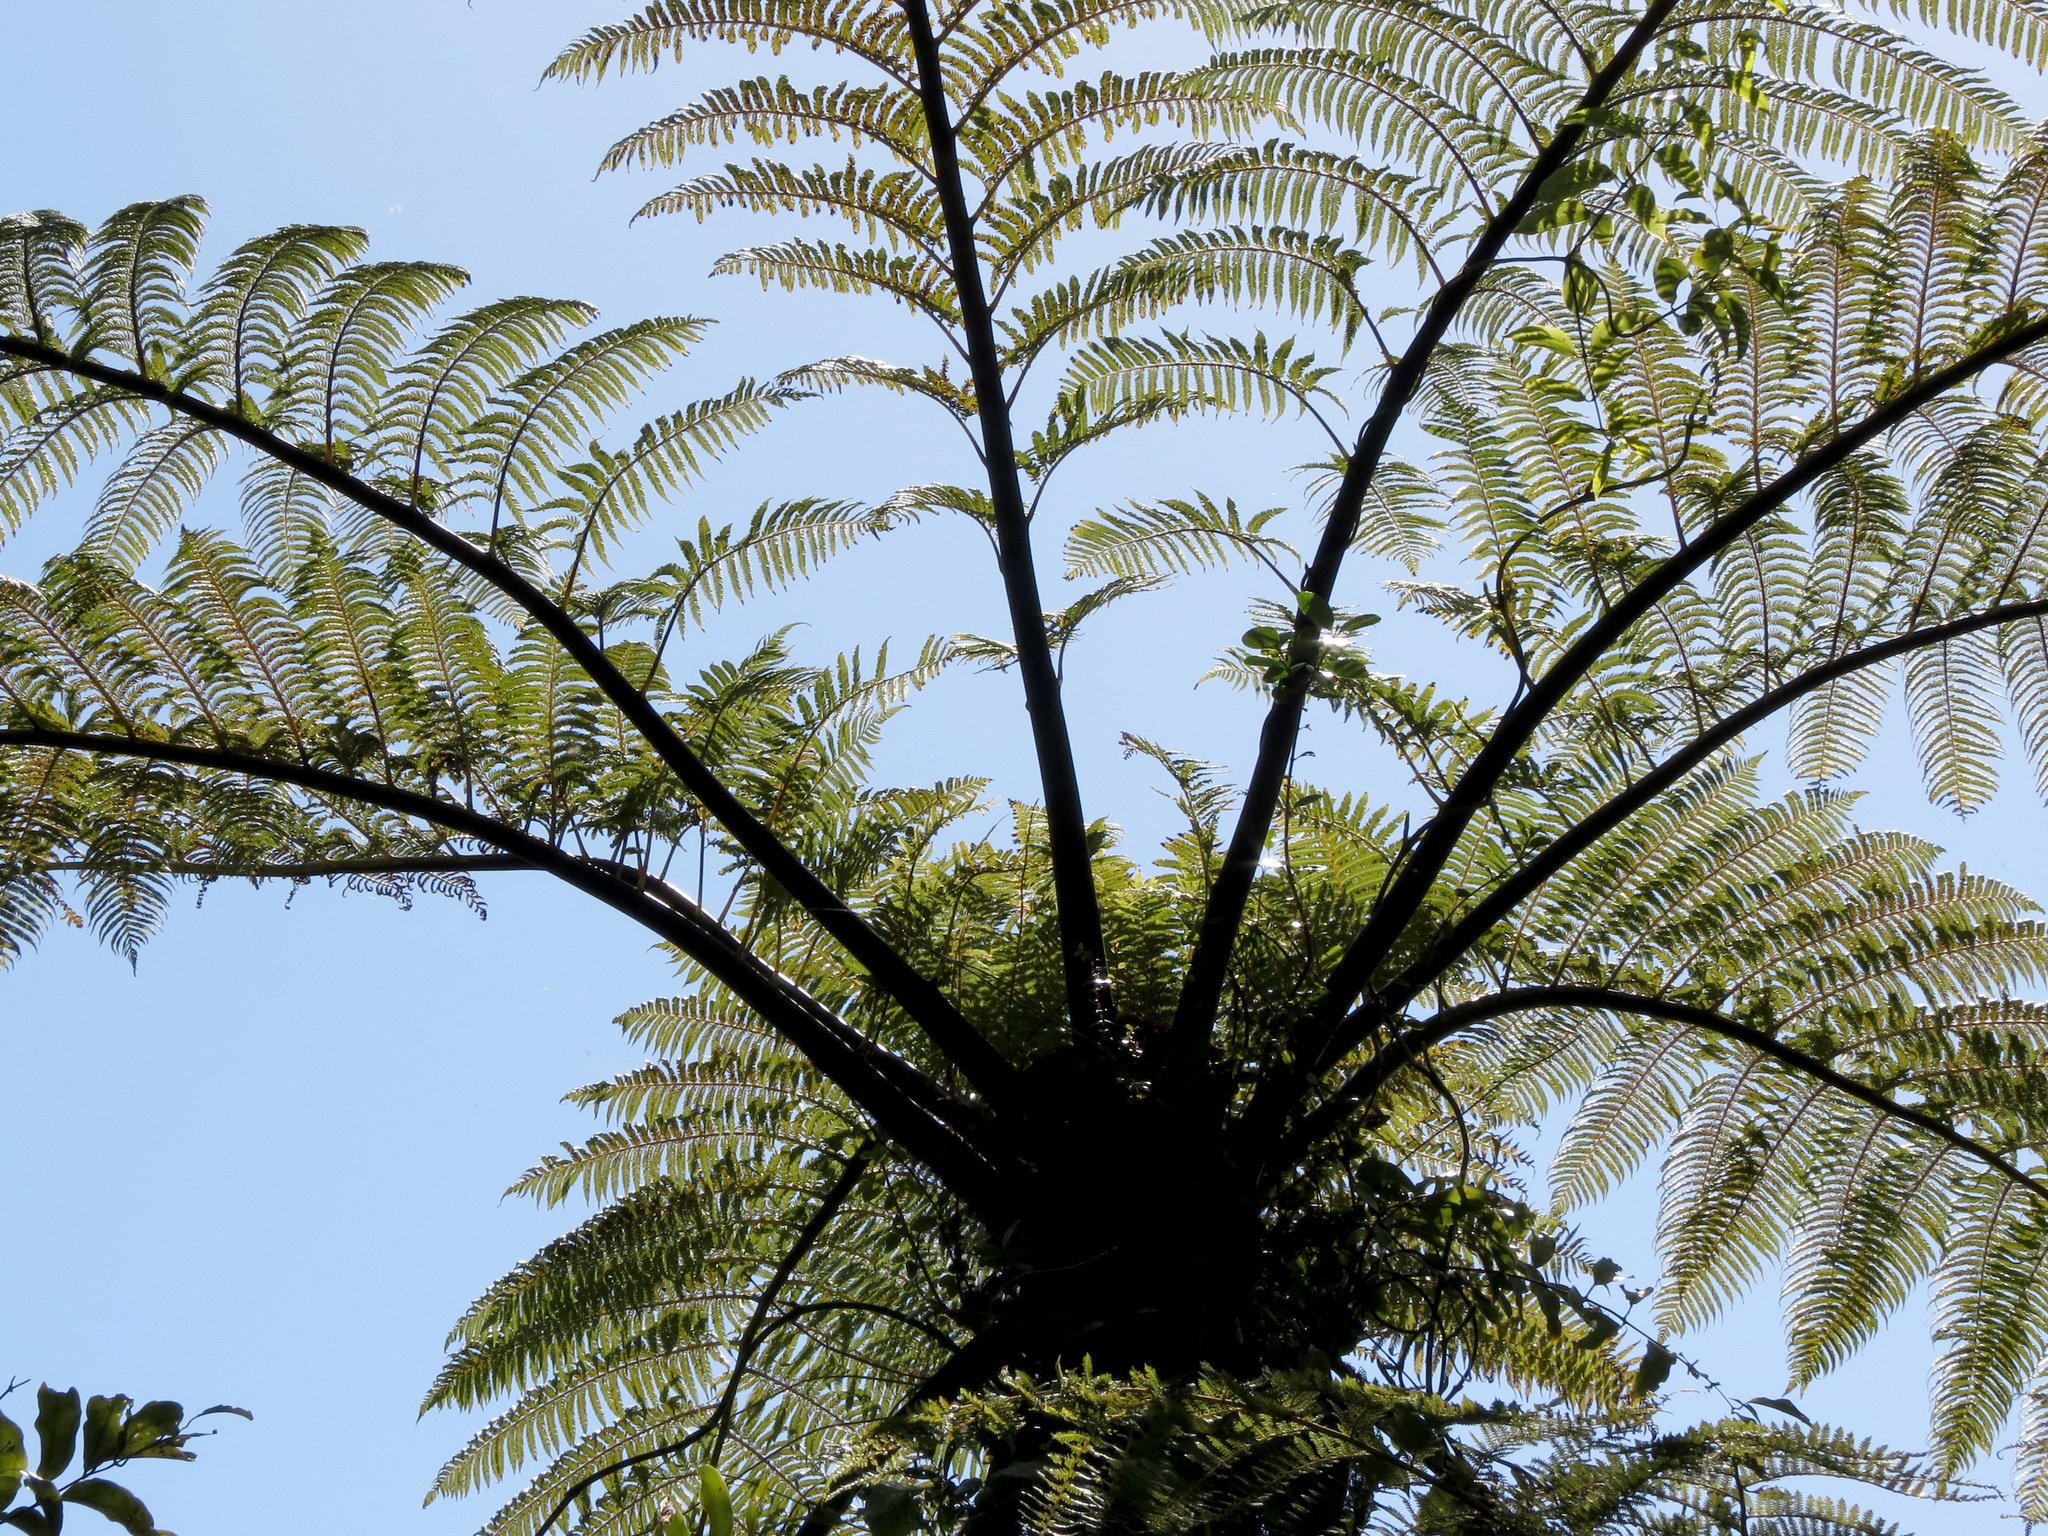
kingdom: Plantae
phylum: Tracheophyta
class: Polypodiopsida
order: Cyatheales
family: Cyatheaceae
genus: Sphaeropteris
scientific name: Sphaeropteris medullaris
